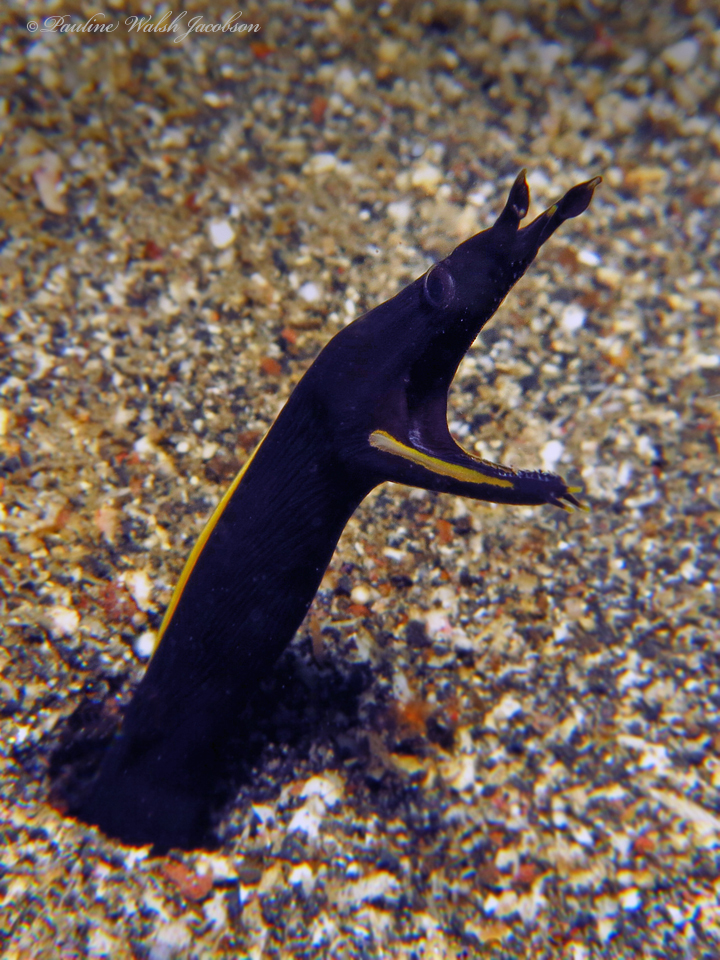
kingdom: Animalia
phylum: Chordata
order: Anguilliformes
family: Muraenidae
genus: Rhinomuraena
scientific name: Rhinomuraena quaesita
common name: Ribbon eel
